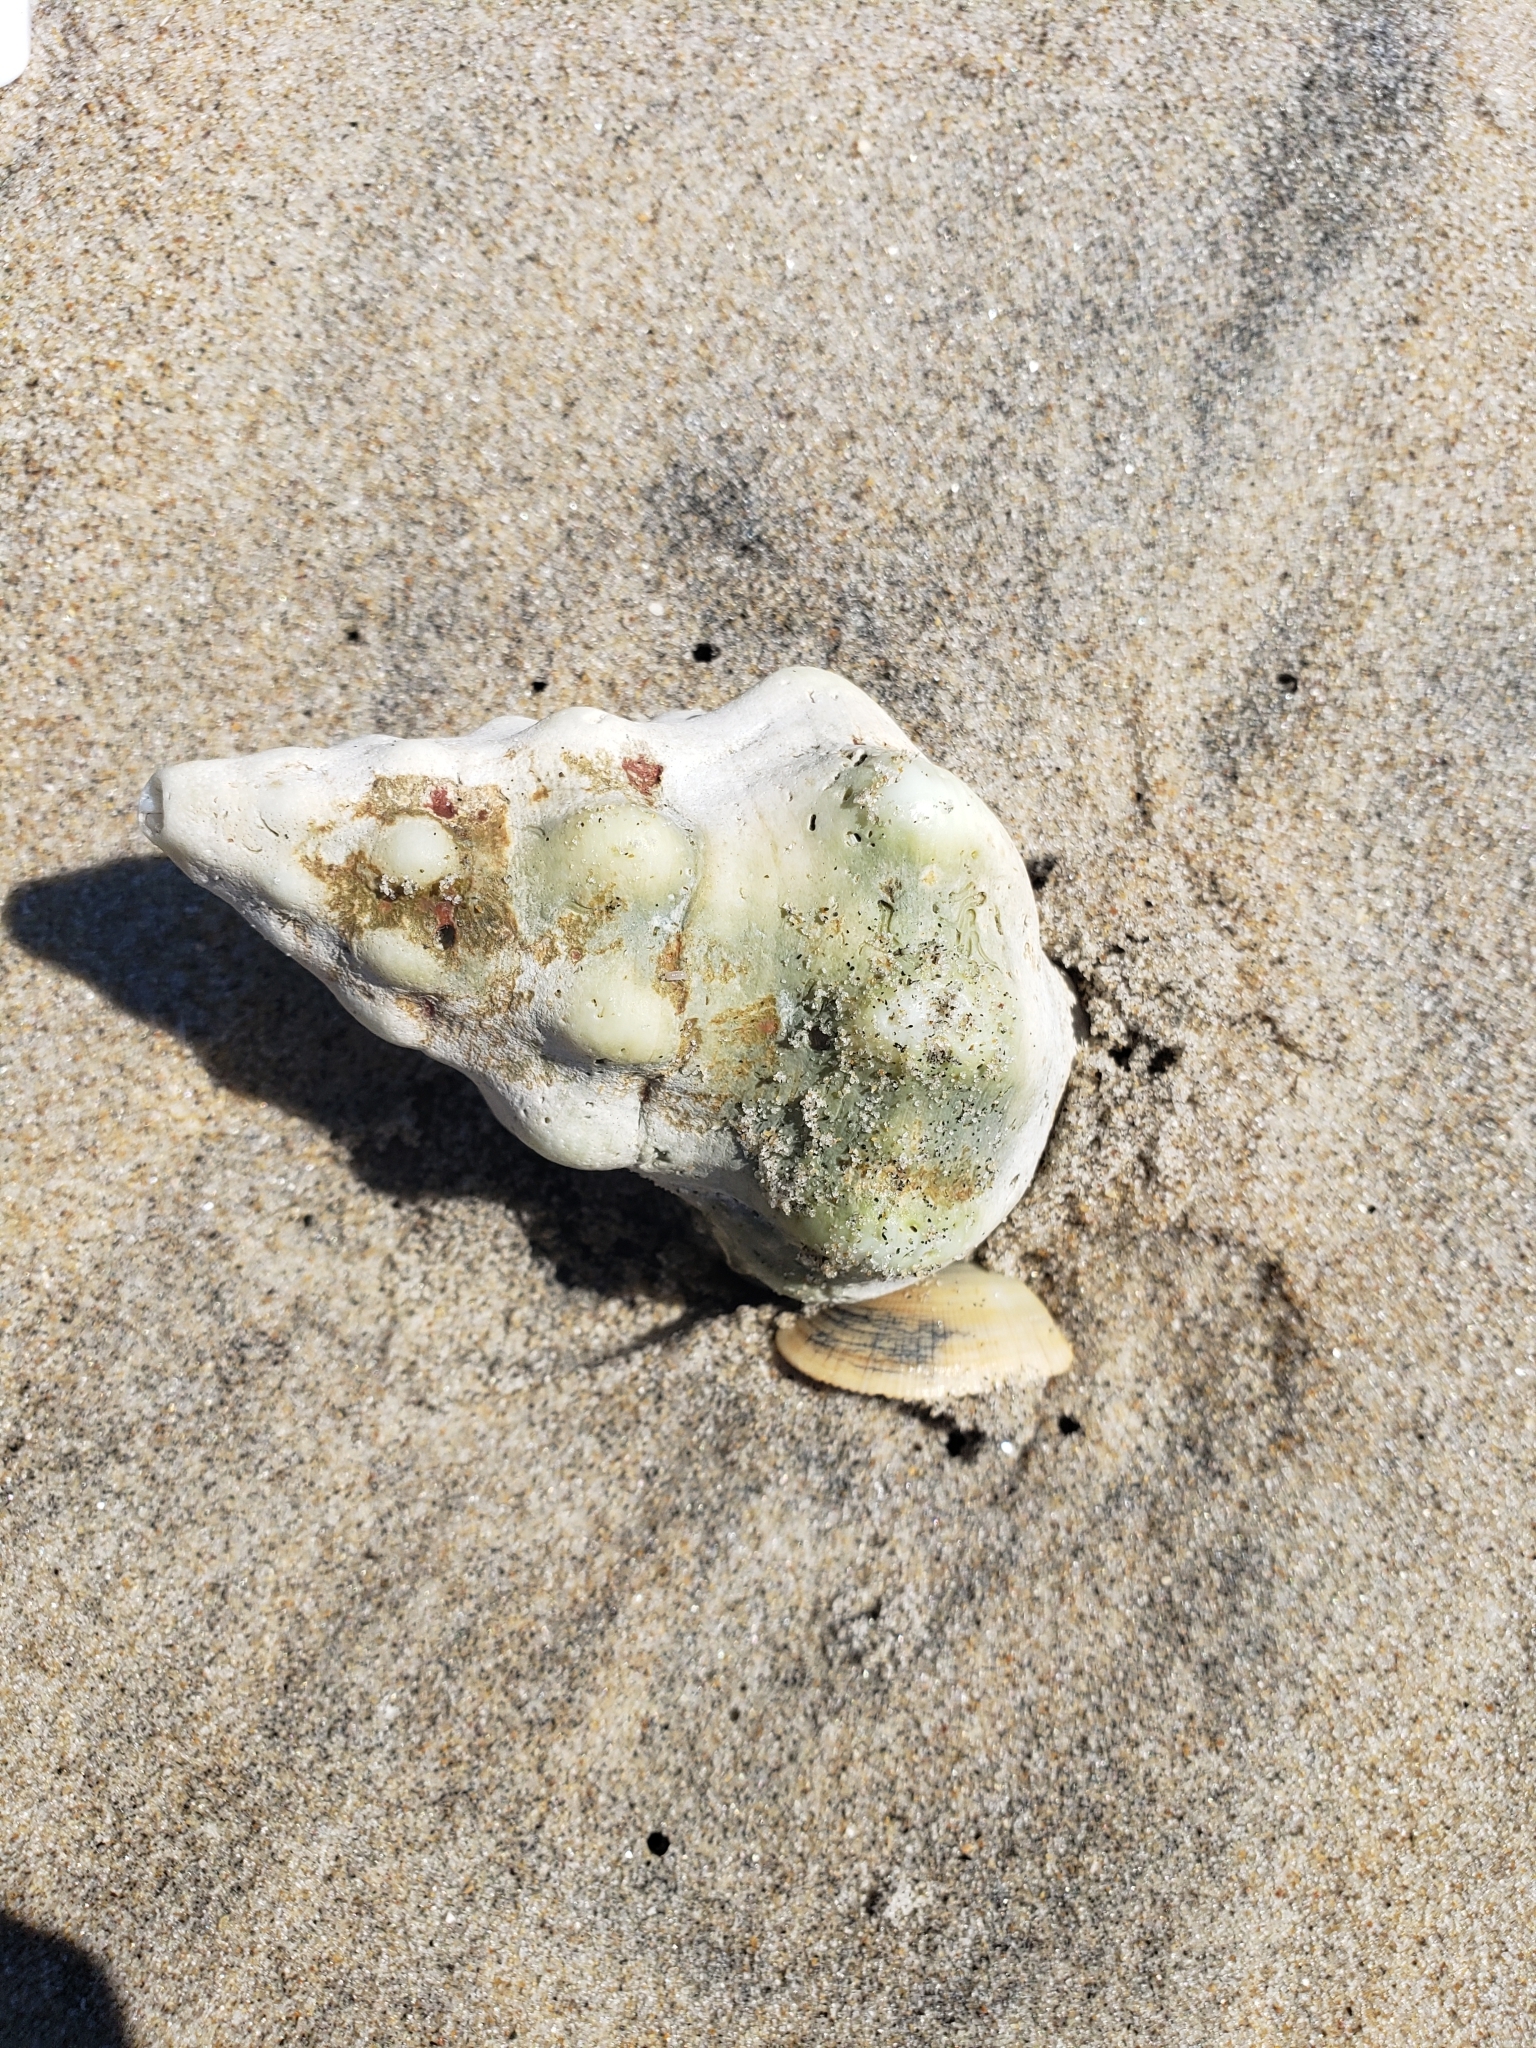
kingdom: Animalia
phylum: Mollusca
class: Gastropoda
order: Neogastropoda
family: Austrosiphonidae
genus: Kelletia
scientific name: Kelletia kelletii
